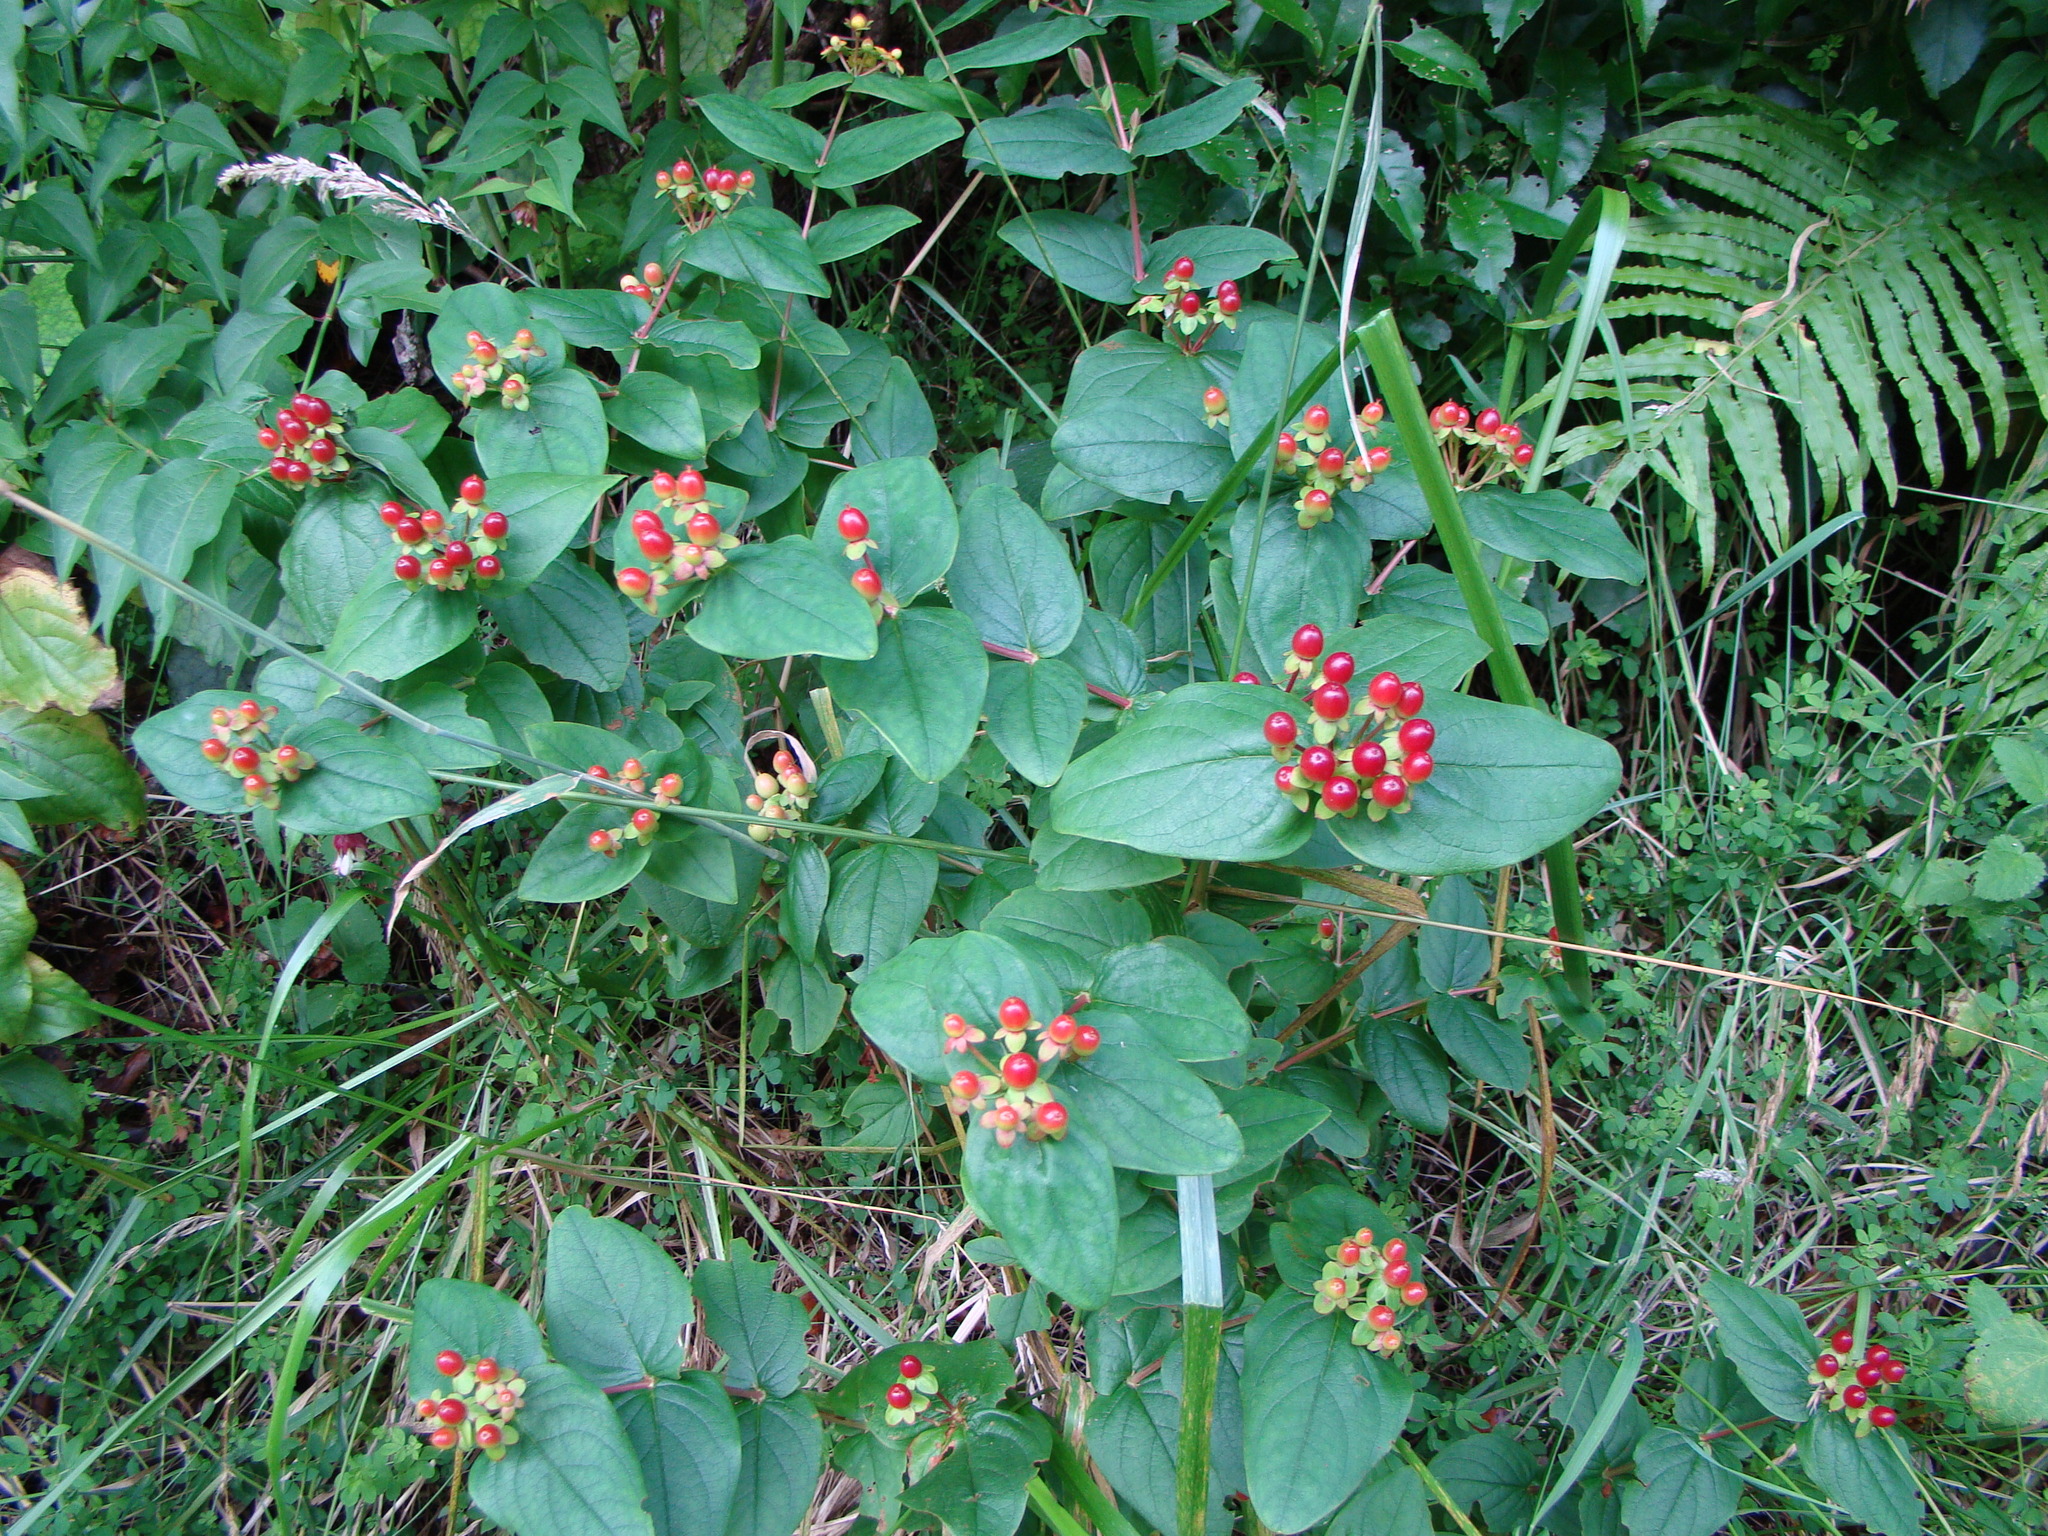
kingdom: Plantae
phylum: Tracheophyta
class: Magnoliopsida
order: Malpighiales
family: Hypericaceae
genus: Hypericum
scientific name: Hypericum androsaemum
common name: Sweet-amber
